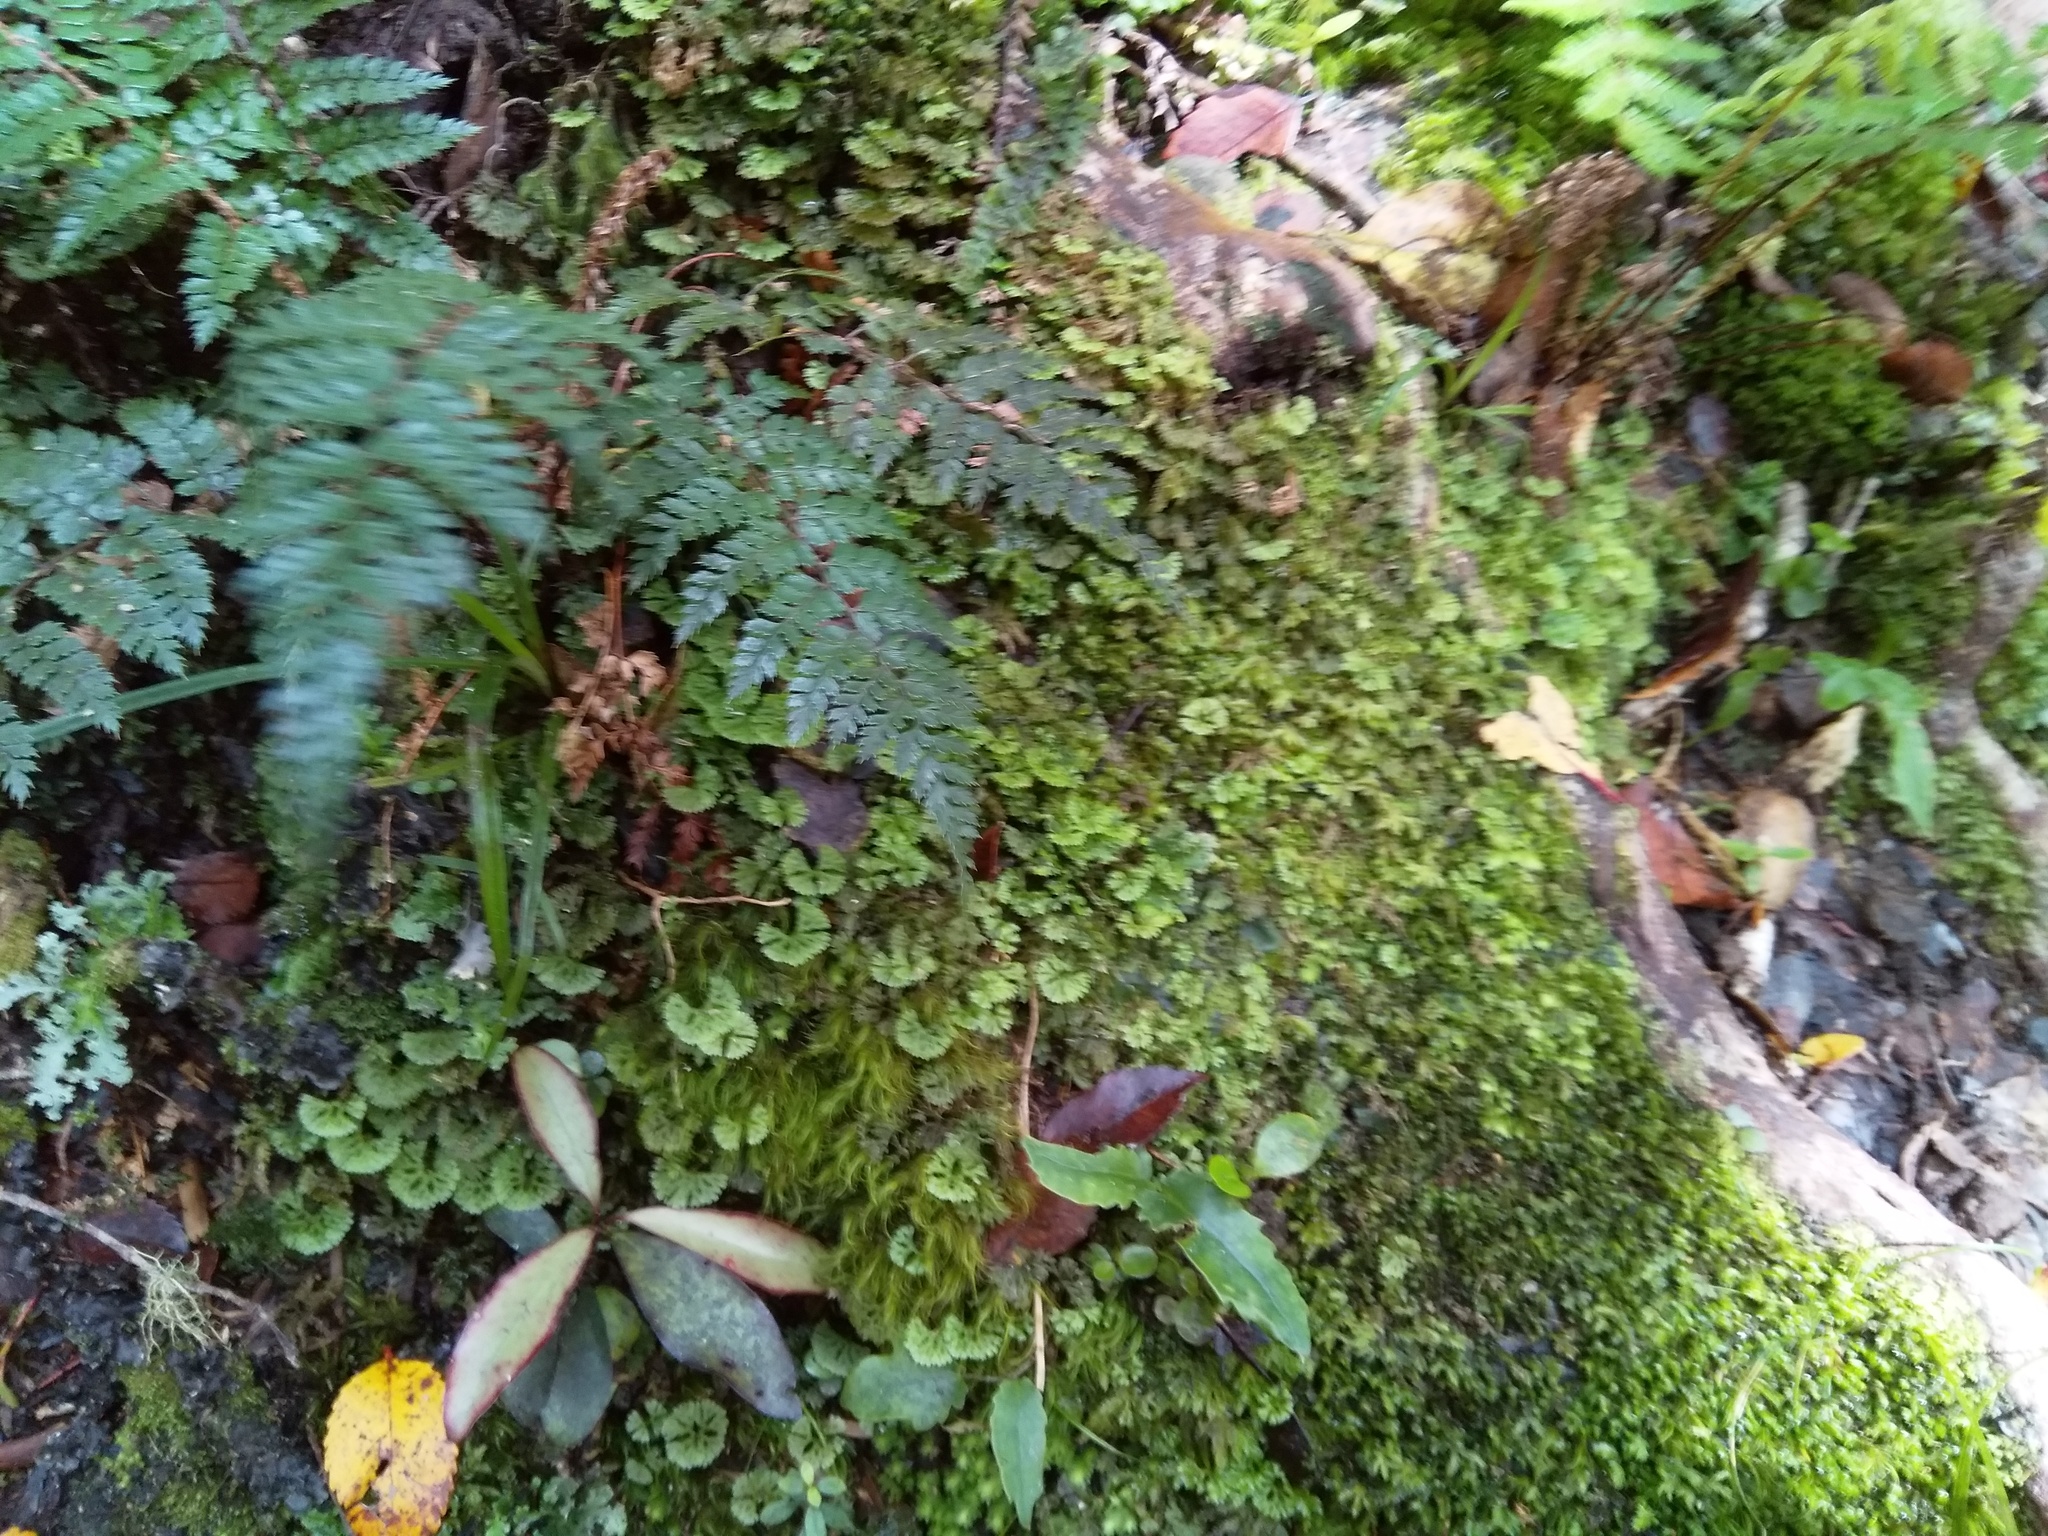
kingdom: Plantae
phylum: Marchantiophyta
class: Jungermanniopsida
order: Pallaviciniales
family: Hymenophytaceae
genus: Hymenophyton
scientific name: Hymenophyton flabellatum
